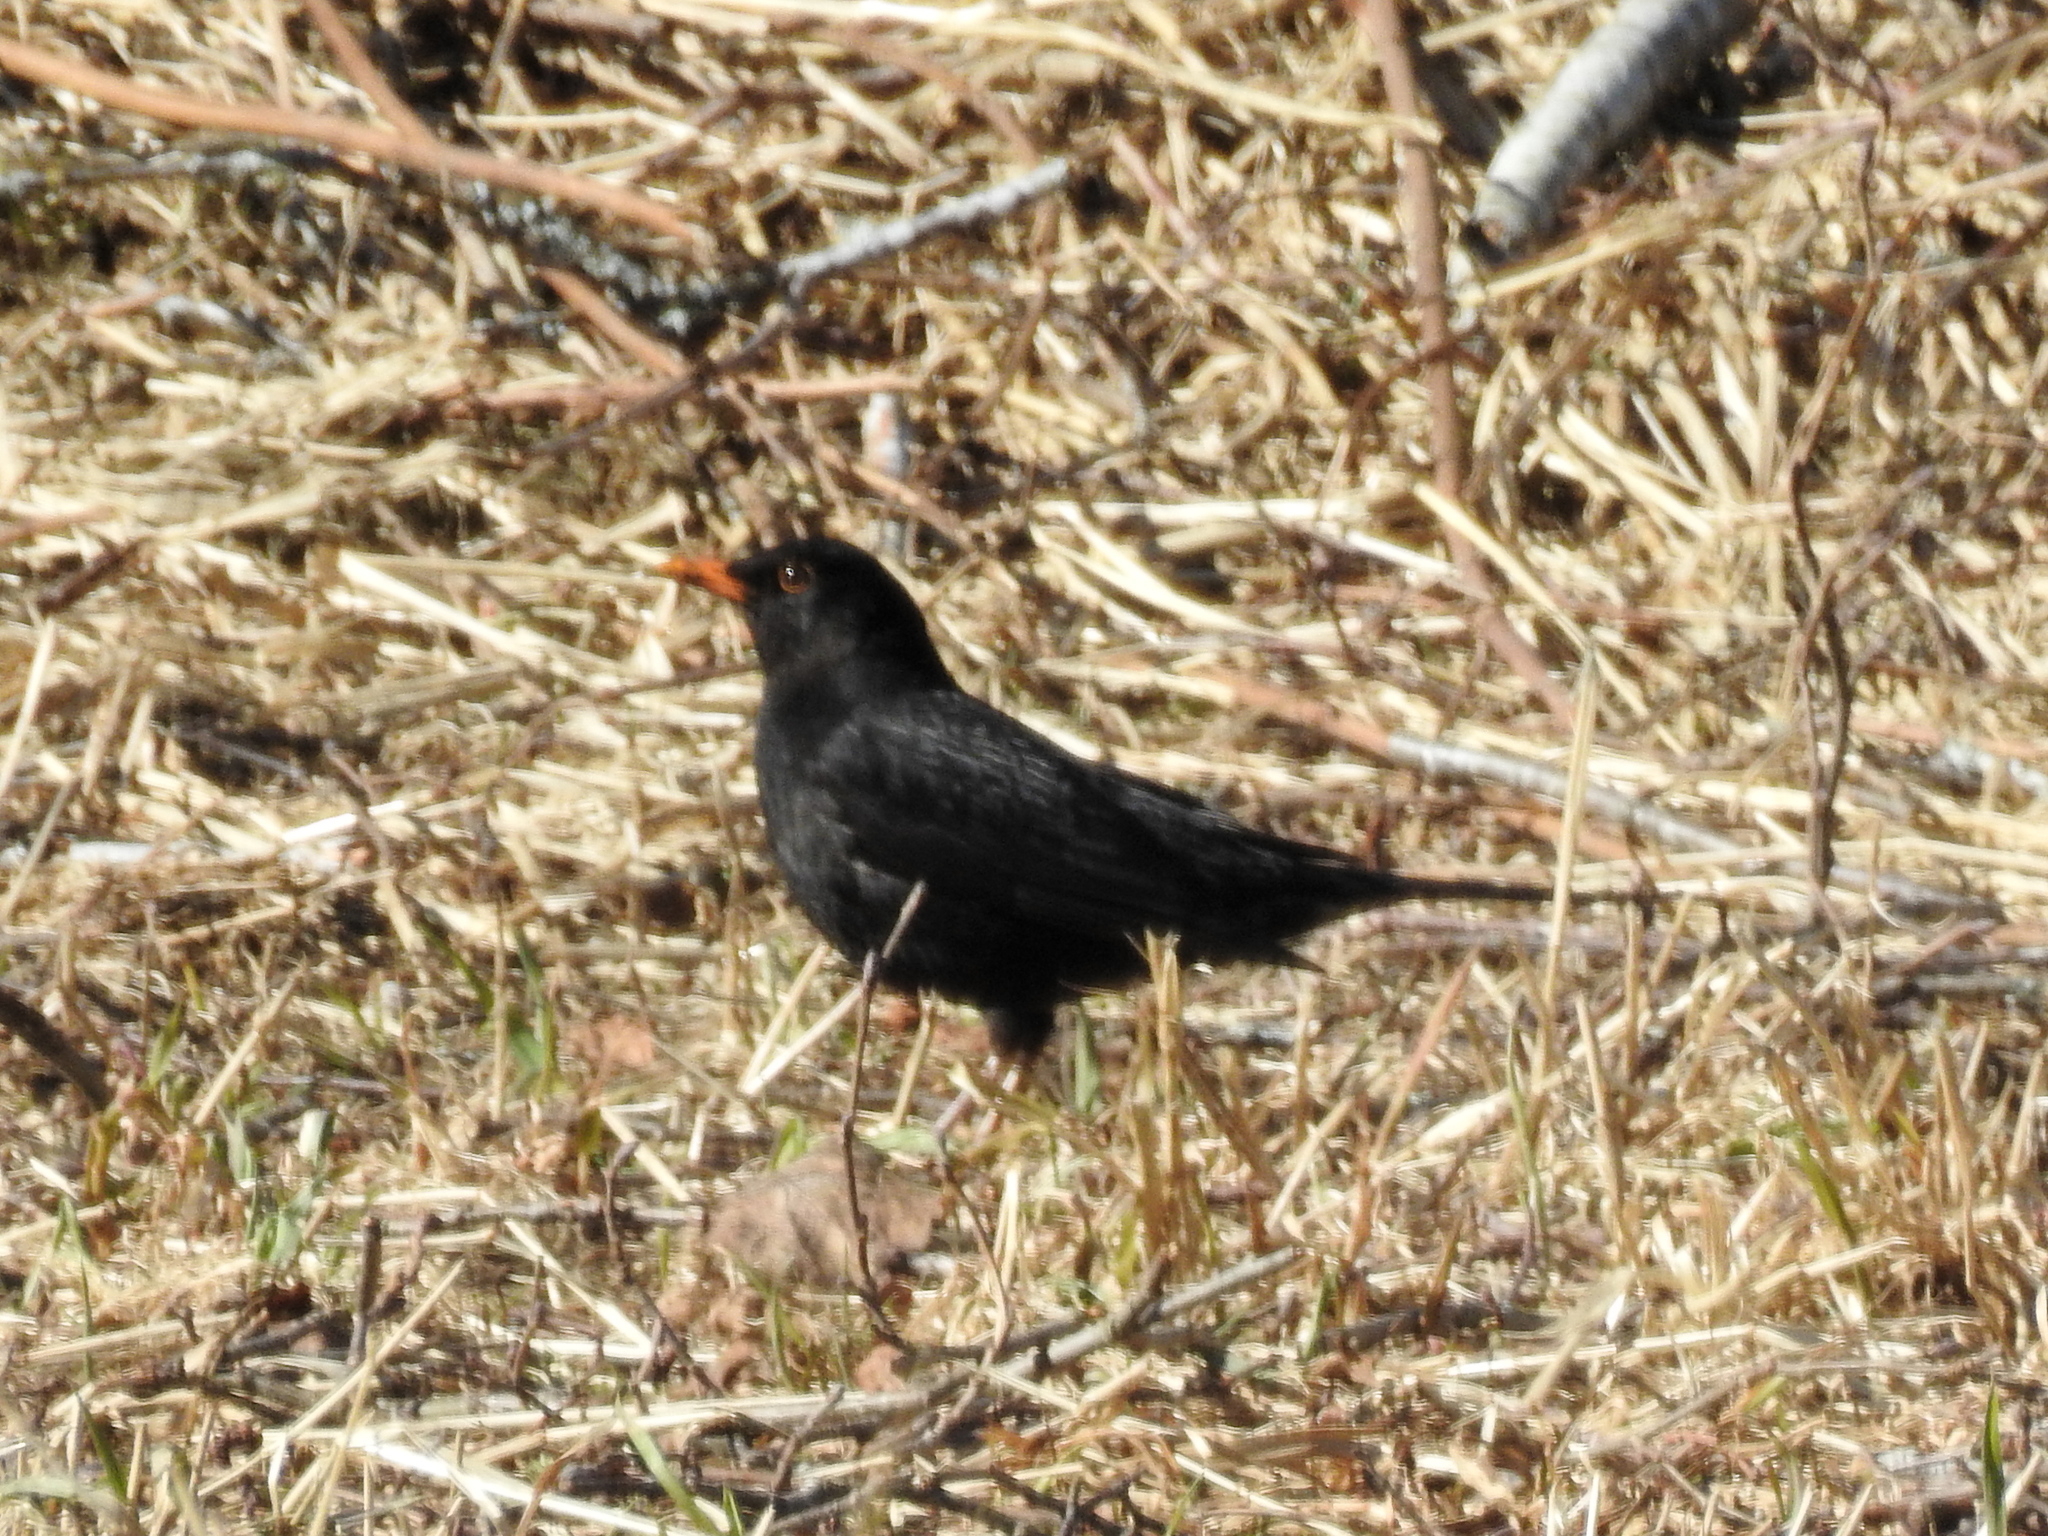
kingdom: Animalia
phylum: Chordata
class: Aves
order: Passeriformes
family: Turdidae
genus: Turdus
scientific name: Turdus merula
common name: Common blackbird
